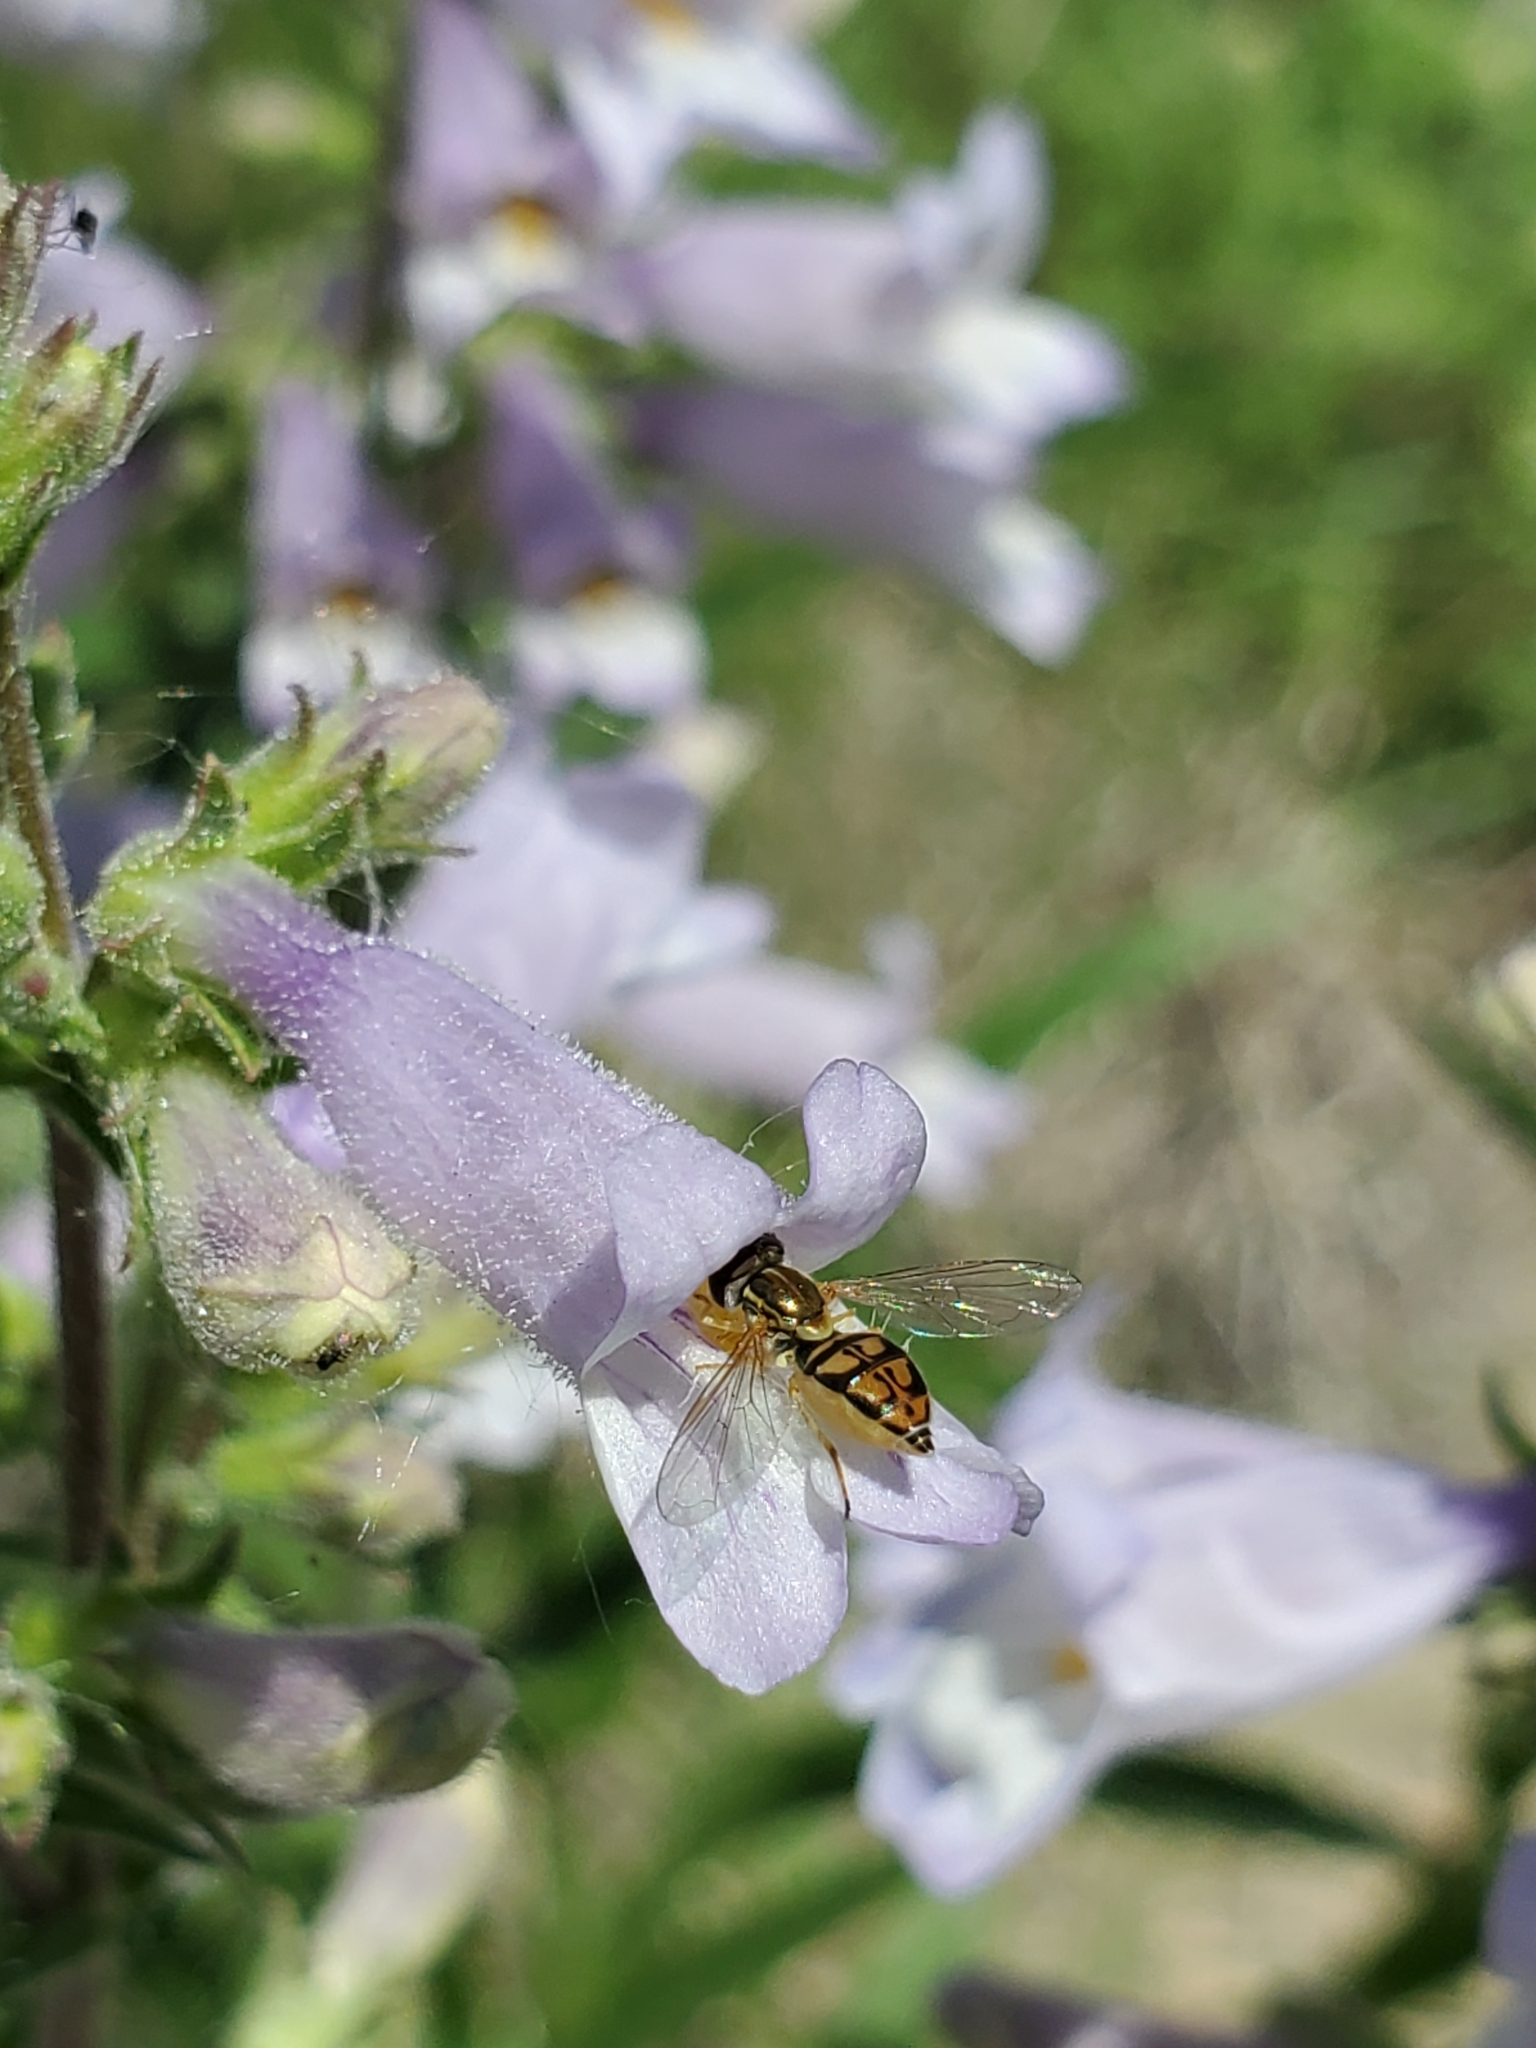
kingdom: Animalia
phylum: Arthropoda
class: Insecta
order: Diptera
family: Syrphidae
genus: Toxomerus
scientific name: Toxomerus marginatus
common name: Syrphid fly
